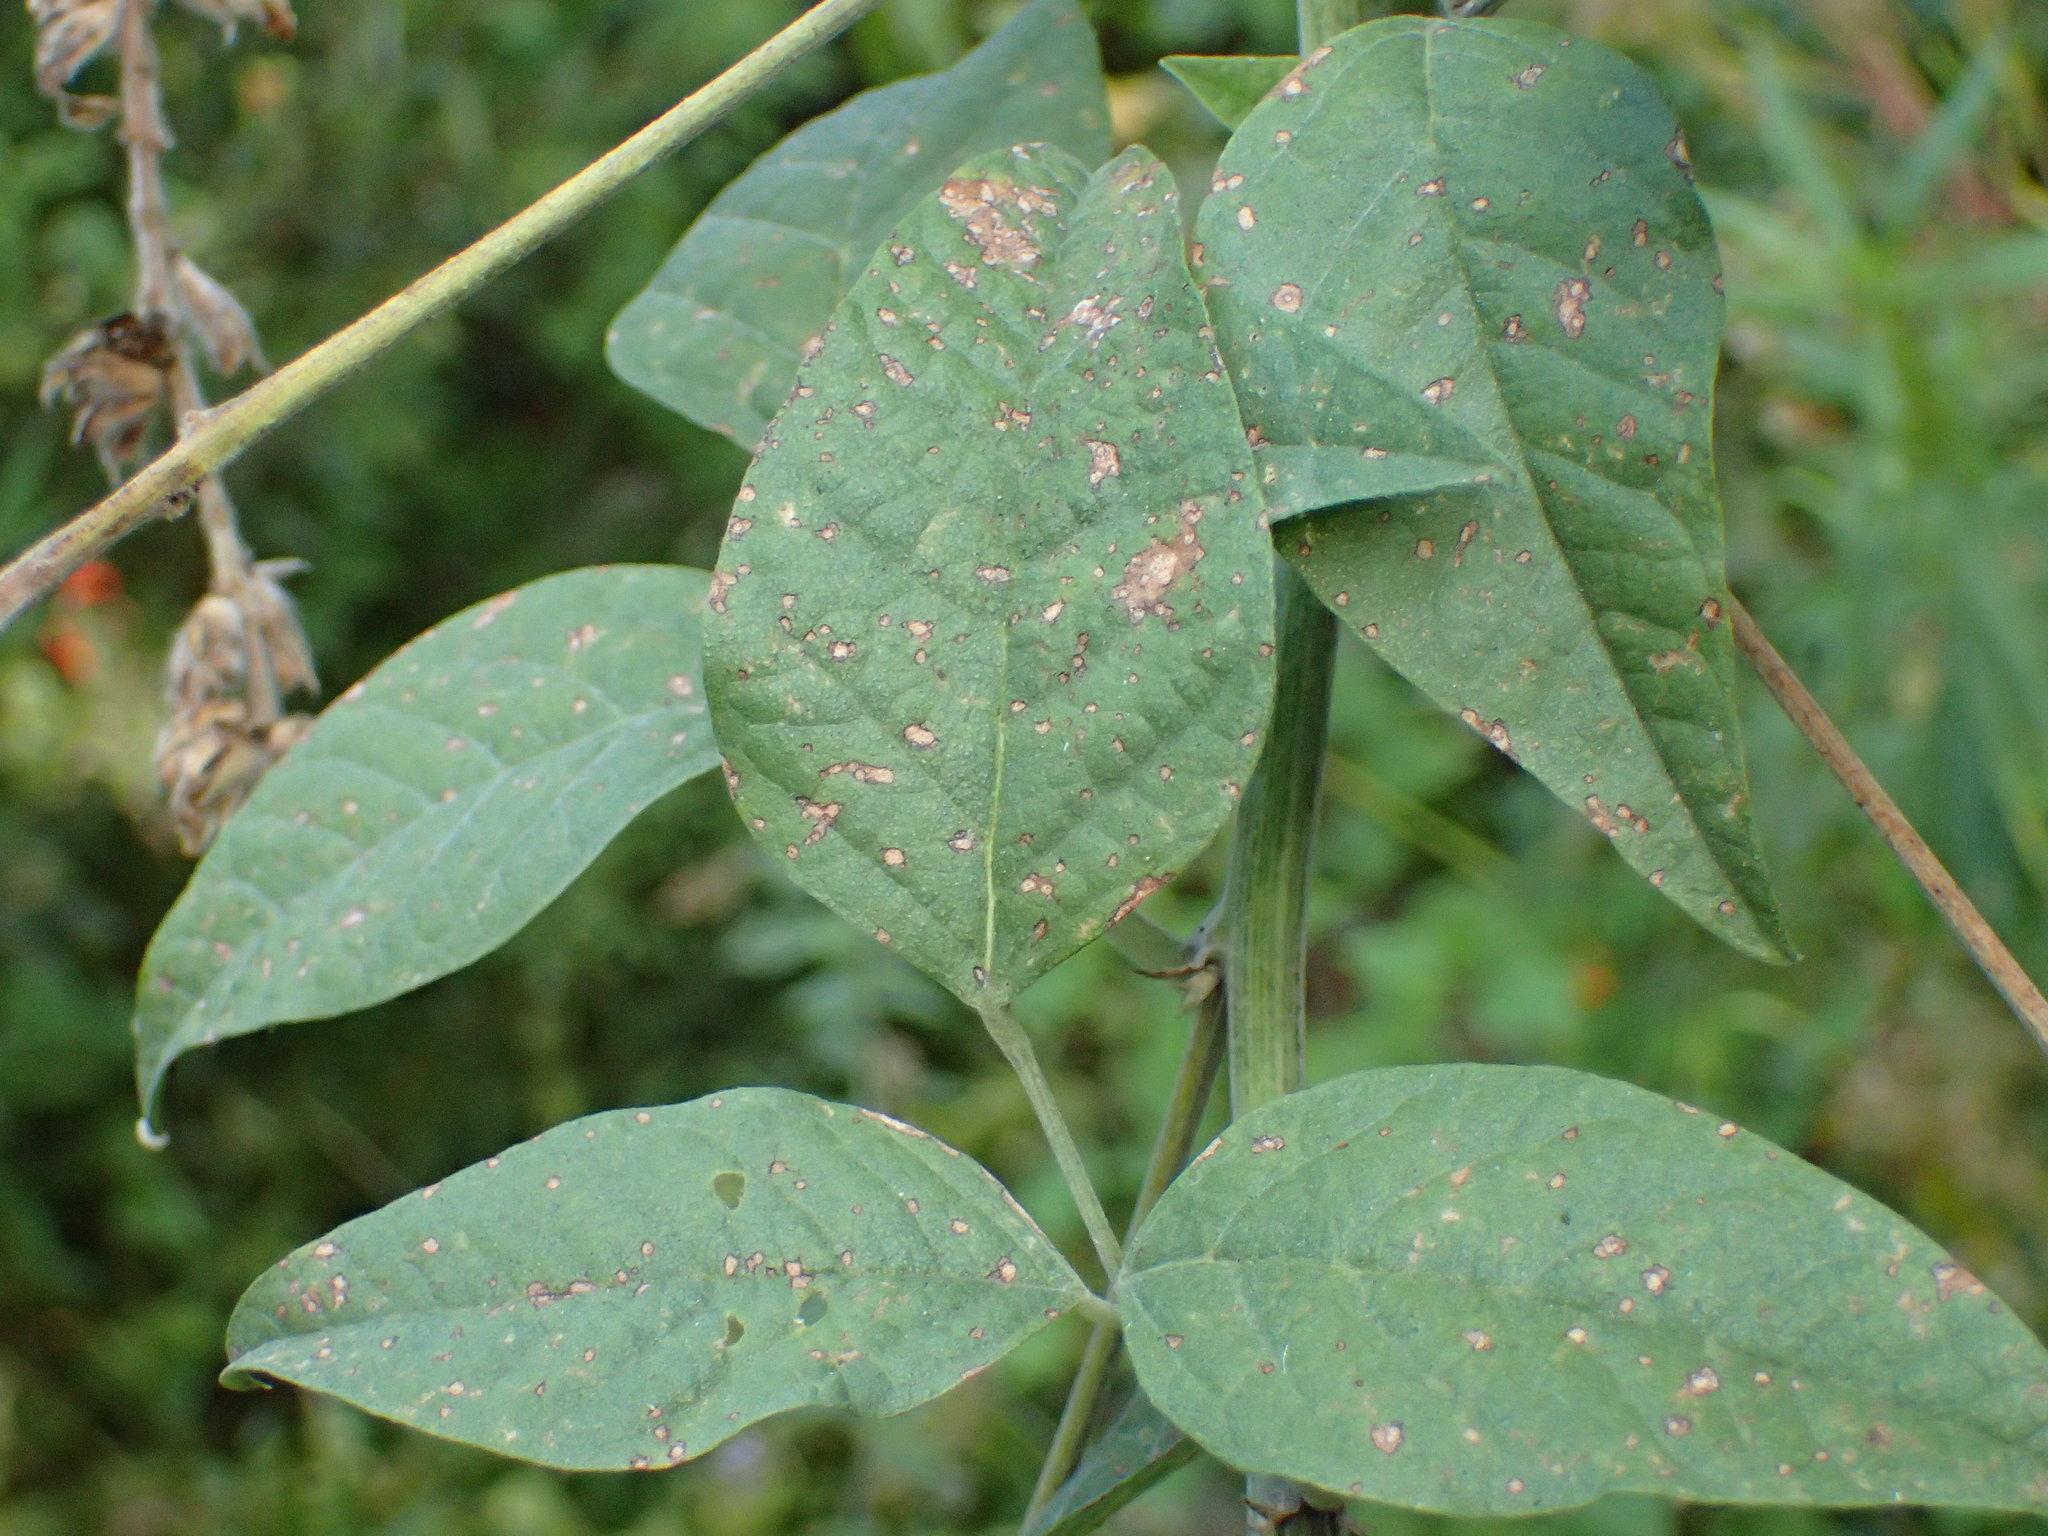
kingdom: Plantae
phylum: Tracheophyta
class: Magnoliopsida
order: Fabales
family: Fabaceae
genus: Hoita
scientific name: Hoita macrostachya
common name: Leatherroot
